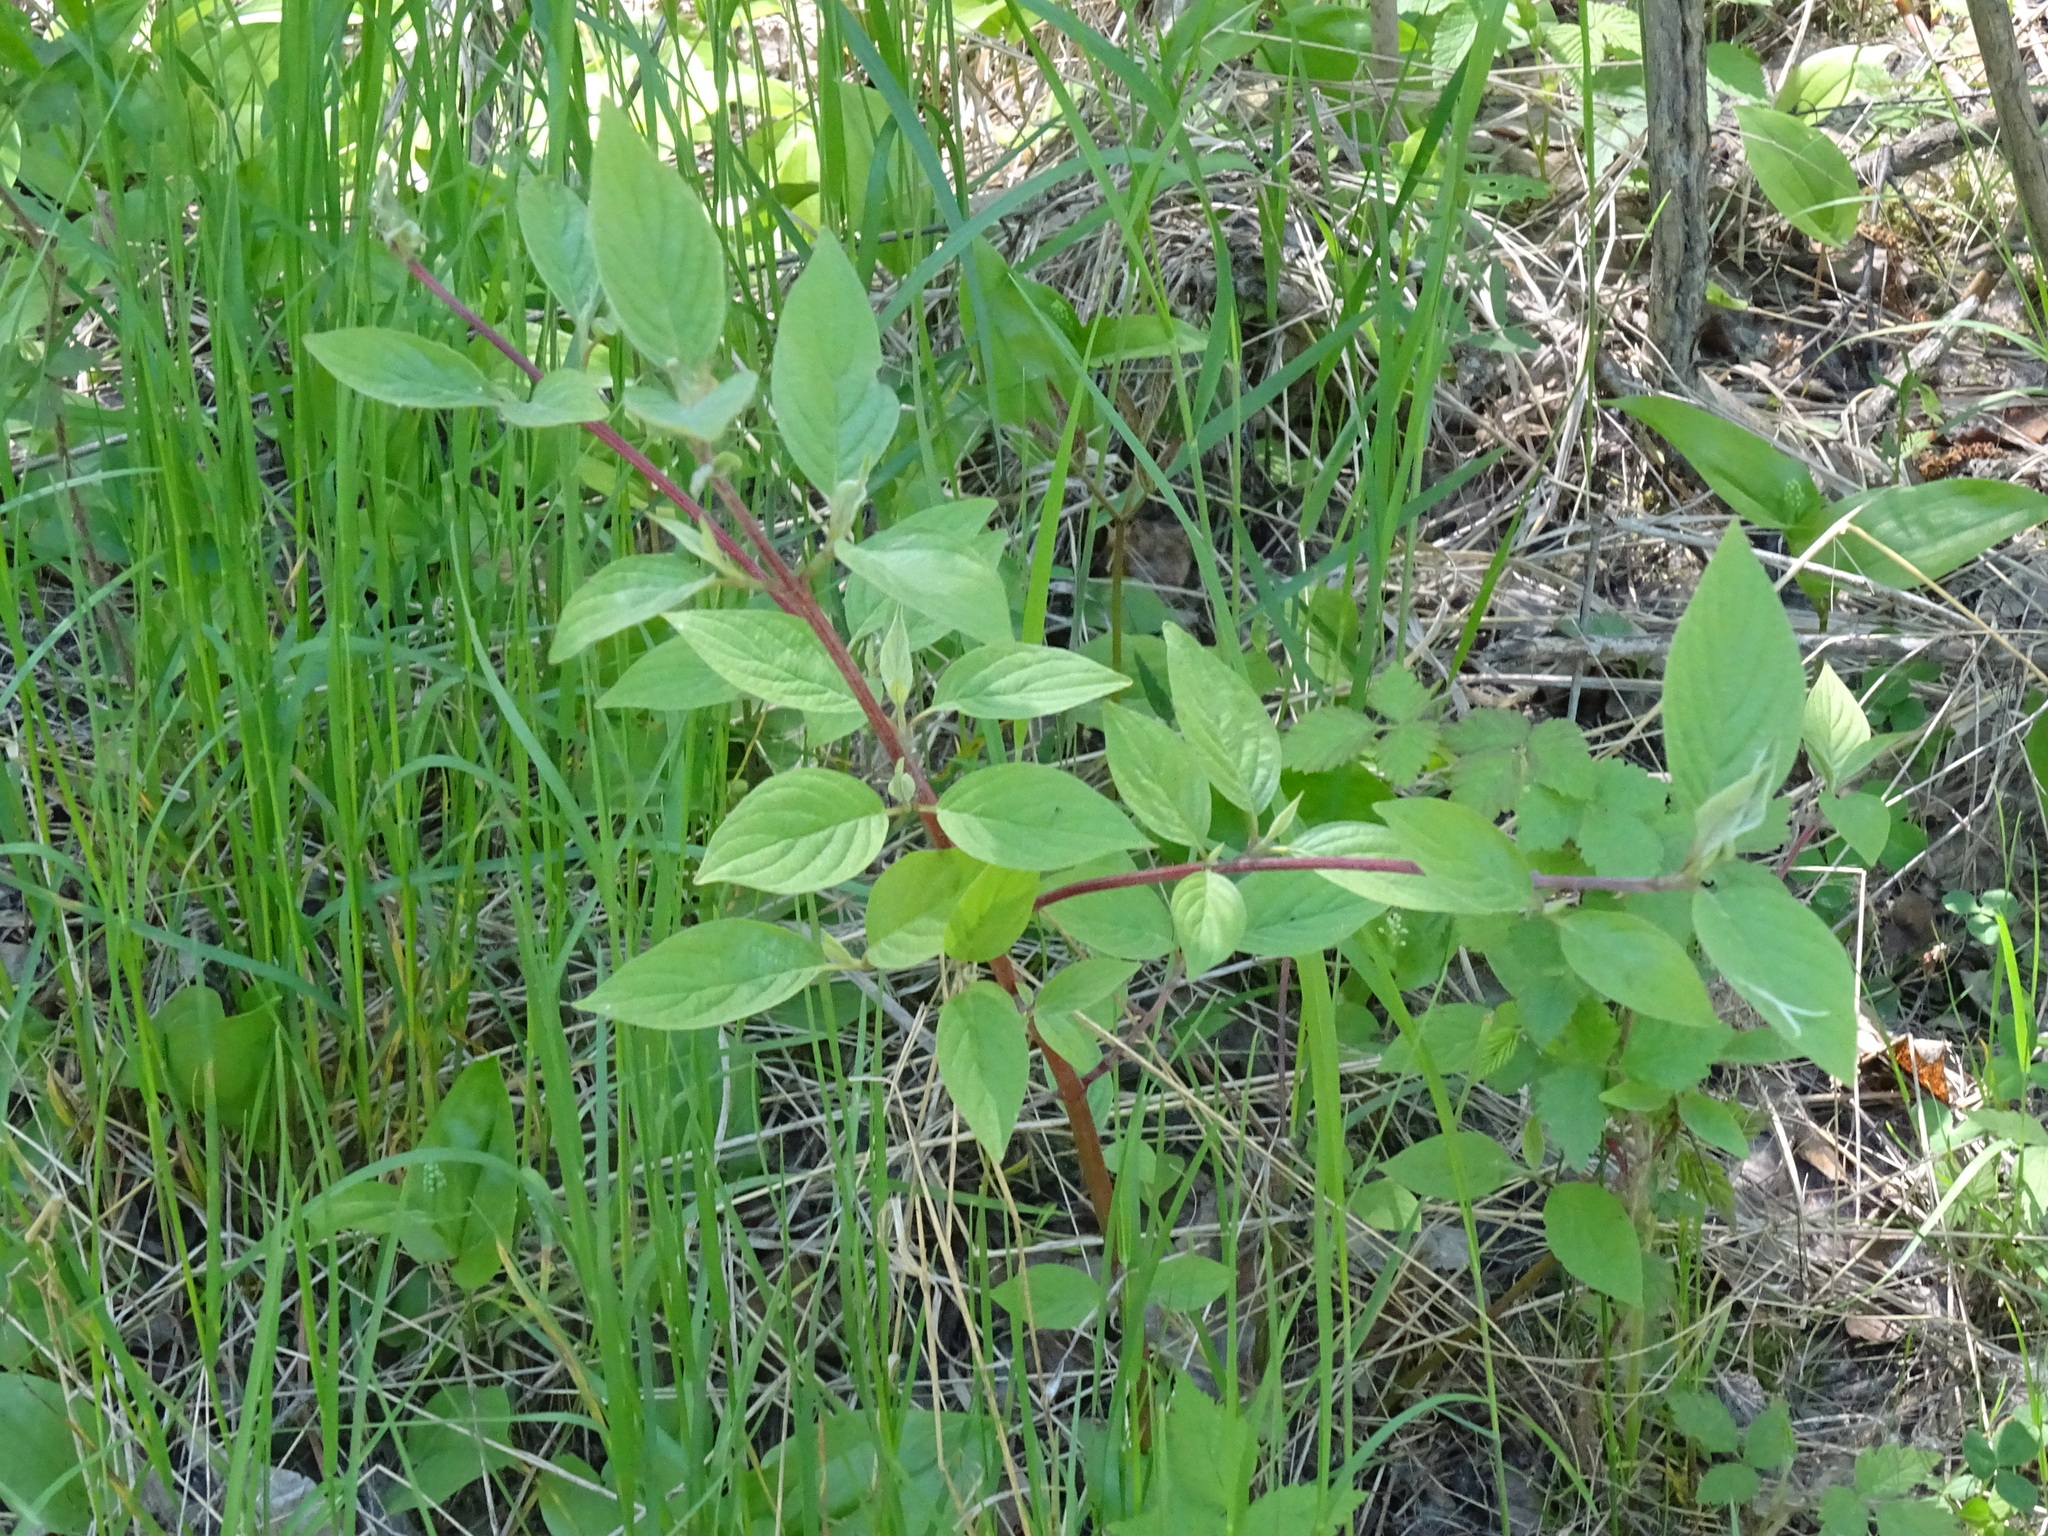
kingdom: Plantae
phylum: Tracheophyta
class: Magnoliopsida
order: Cornales
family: Cornaceae
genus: Cornus
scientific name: Cornus sericea
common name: Red-osier dogwood
